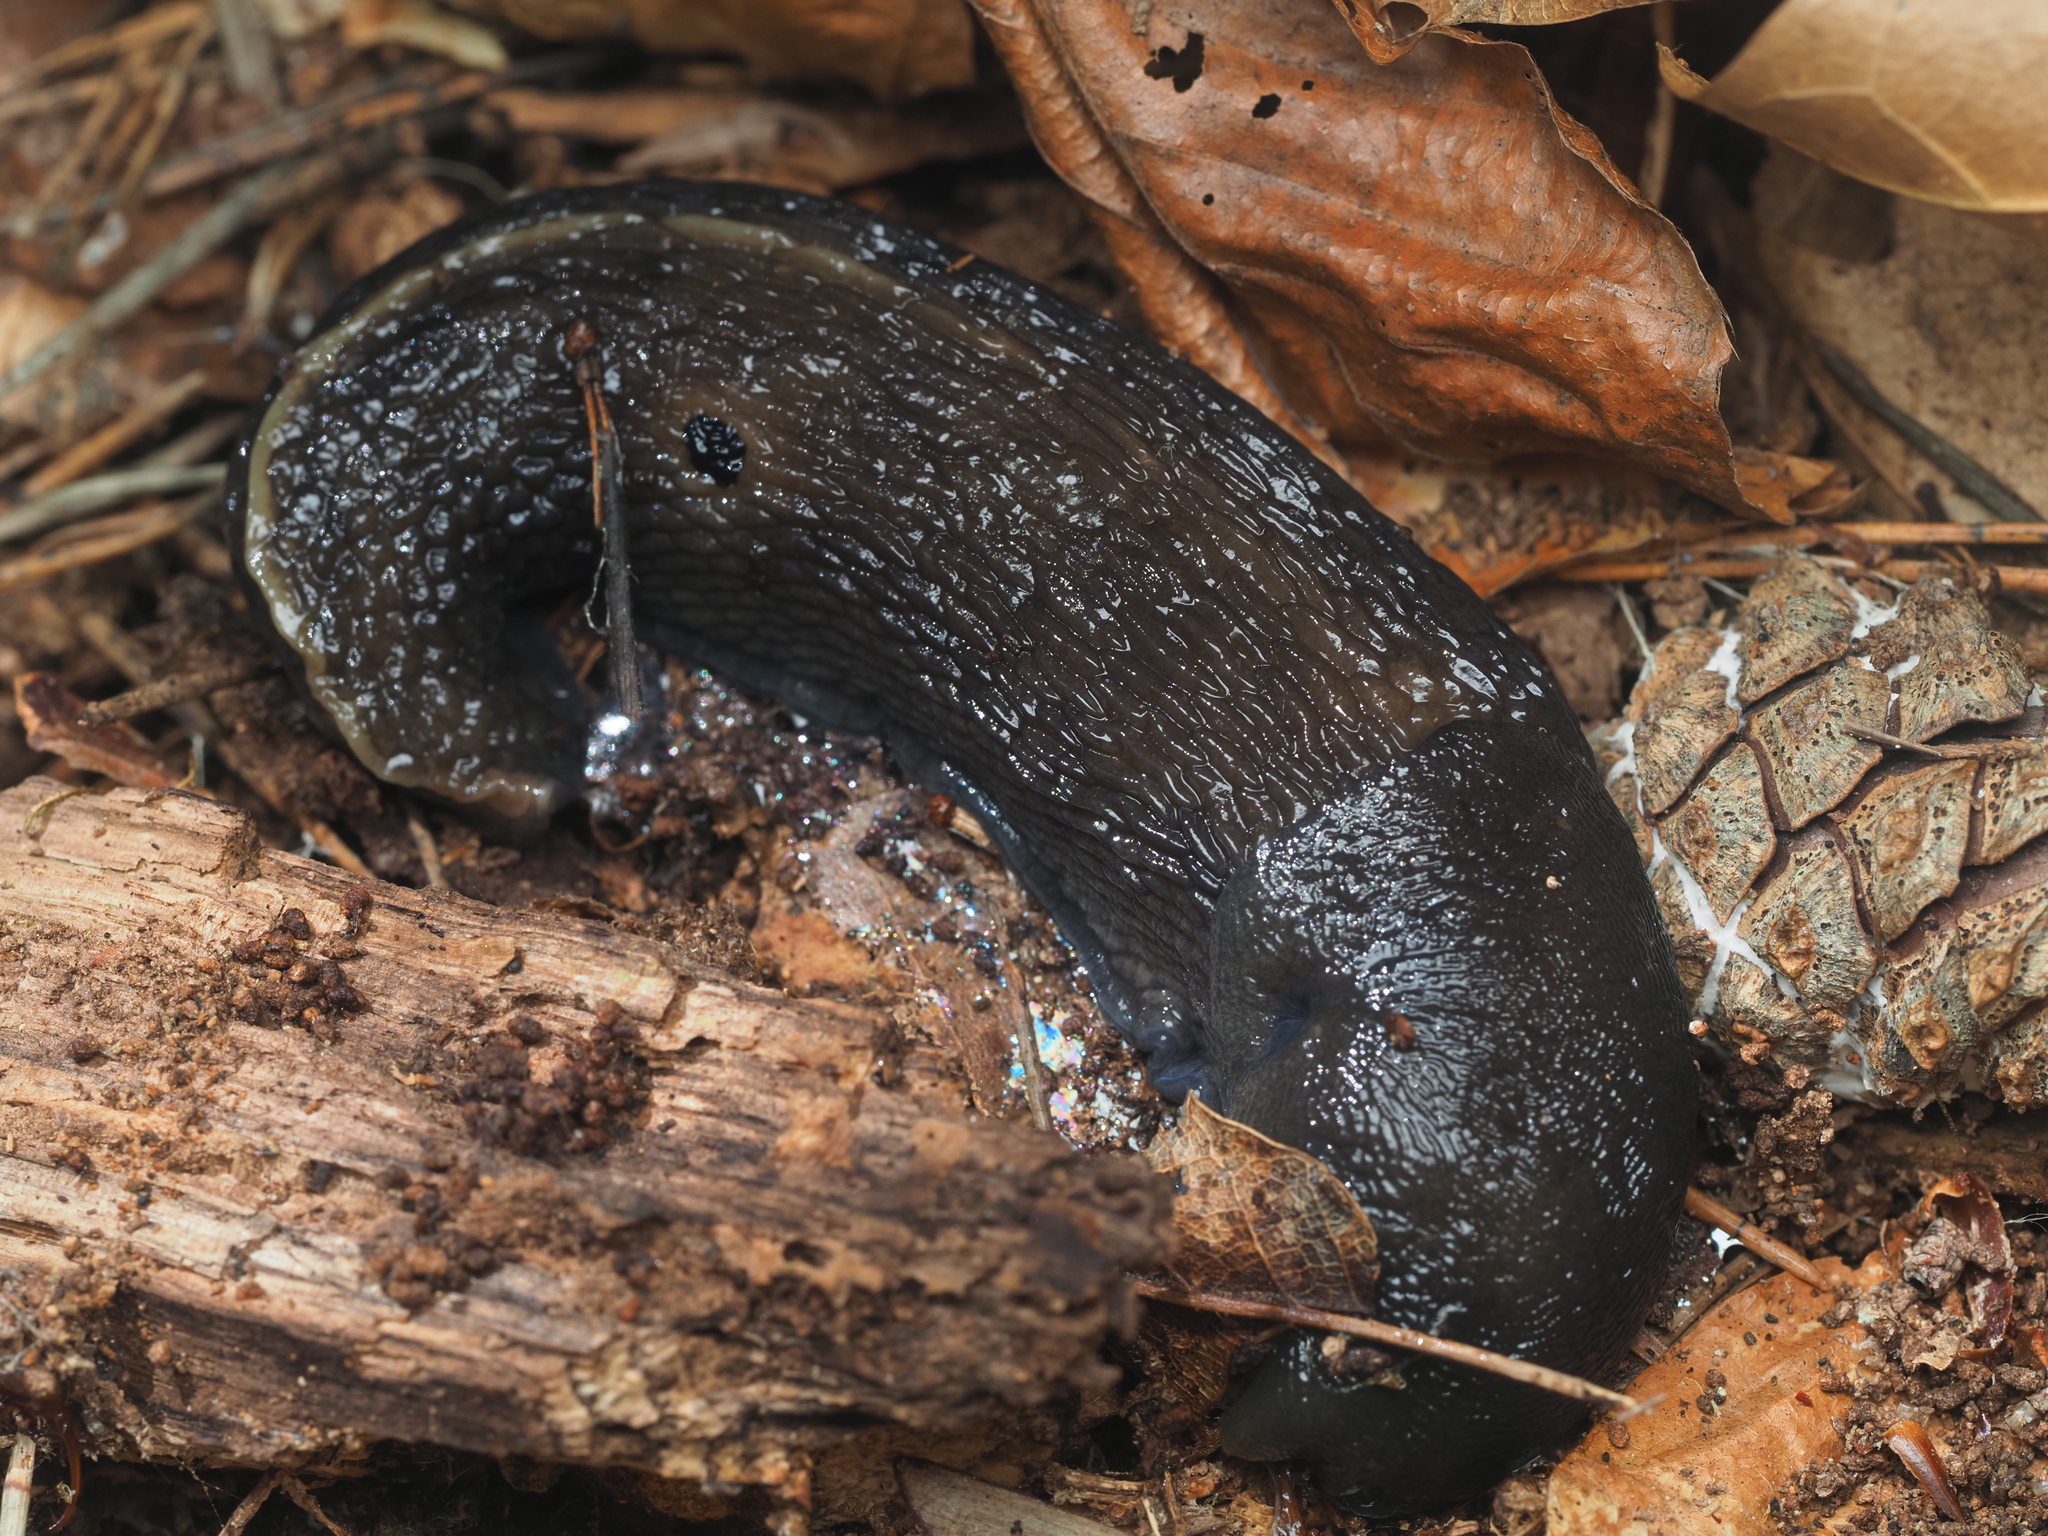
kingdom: Animalia
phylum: Mollusca
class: Gastropoda
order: Stylommatophora
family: Limacidae
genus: Limax
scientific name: Limax cinereoniger
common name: Ash-black slug
